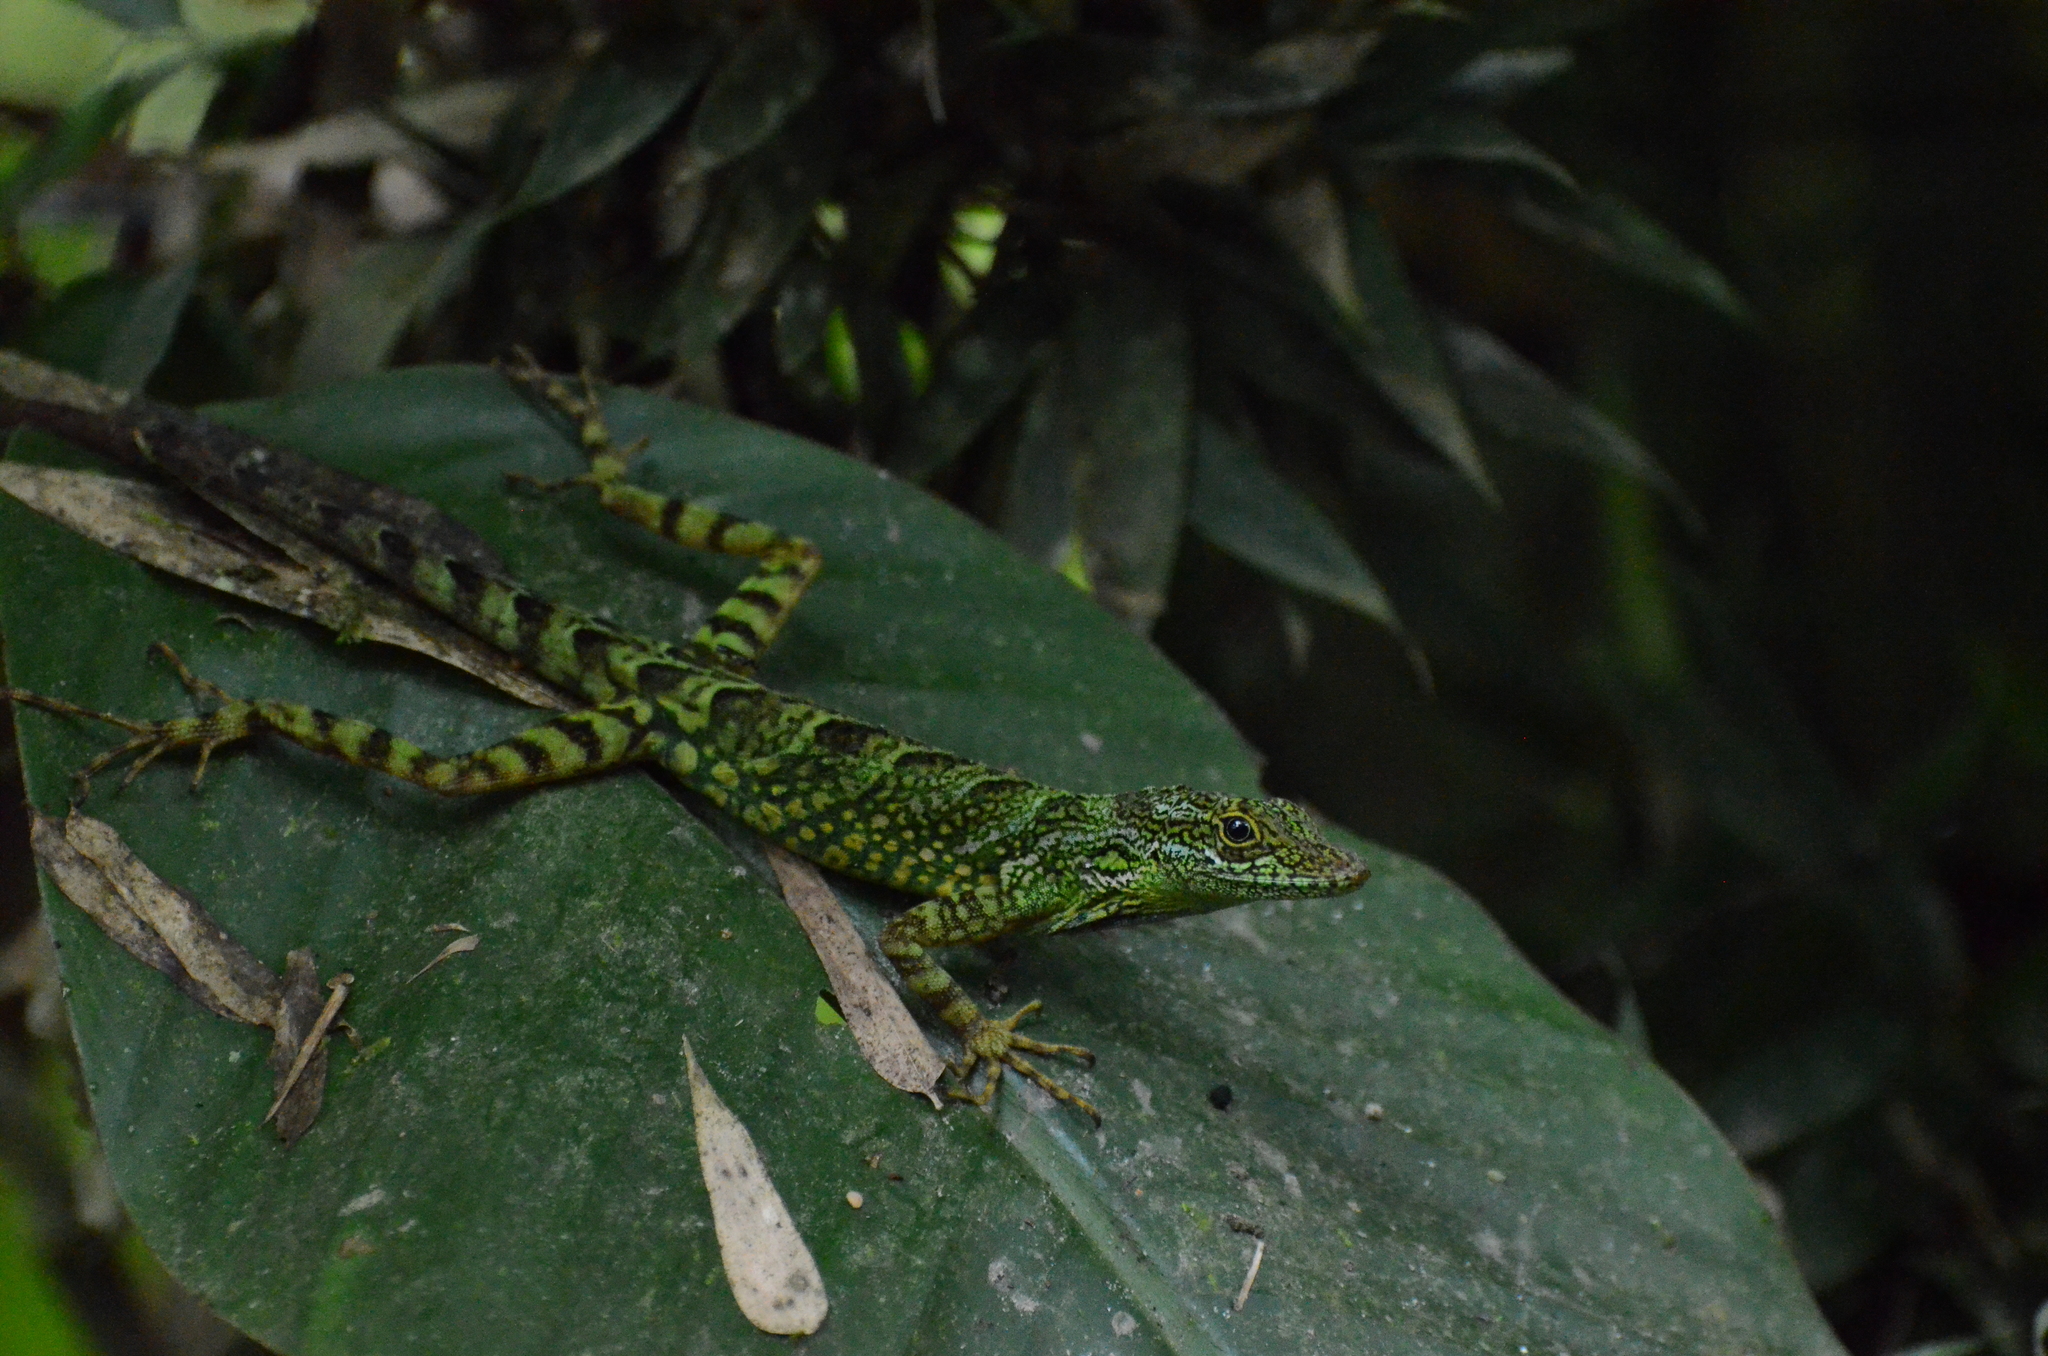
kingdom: Animalia
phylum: Chordata
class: Squamata
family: Dactyloidae
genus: Anolis
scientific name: Anolis aequatorialis
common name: Equatorial anole
